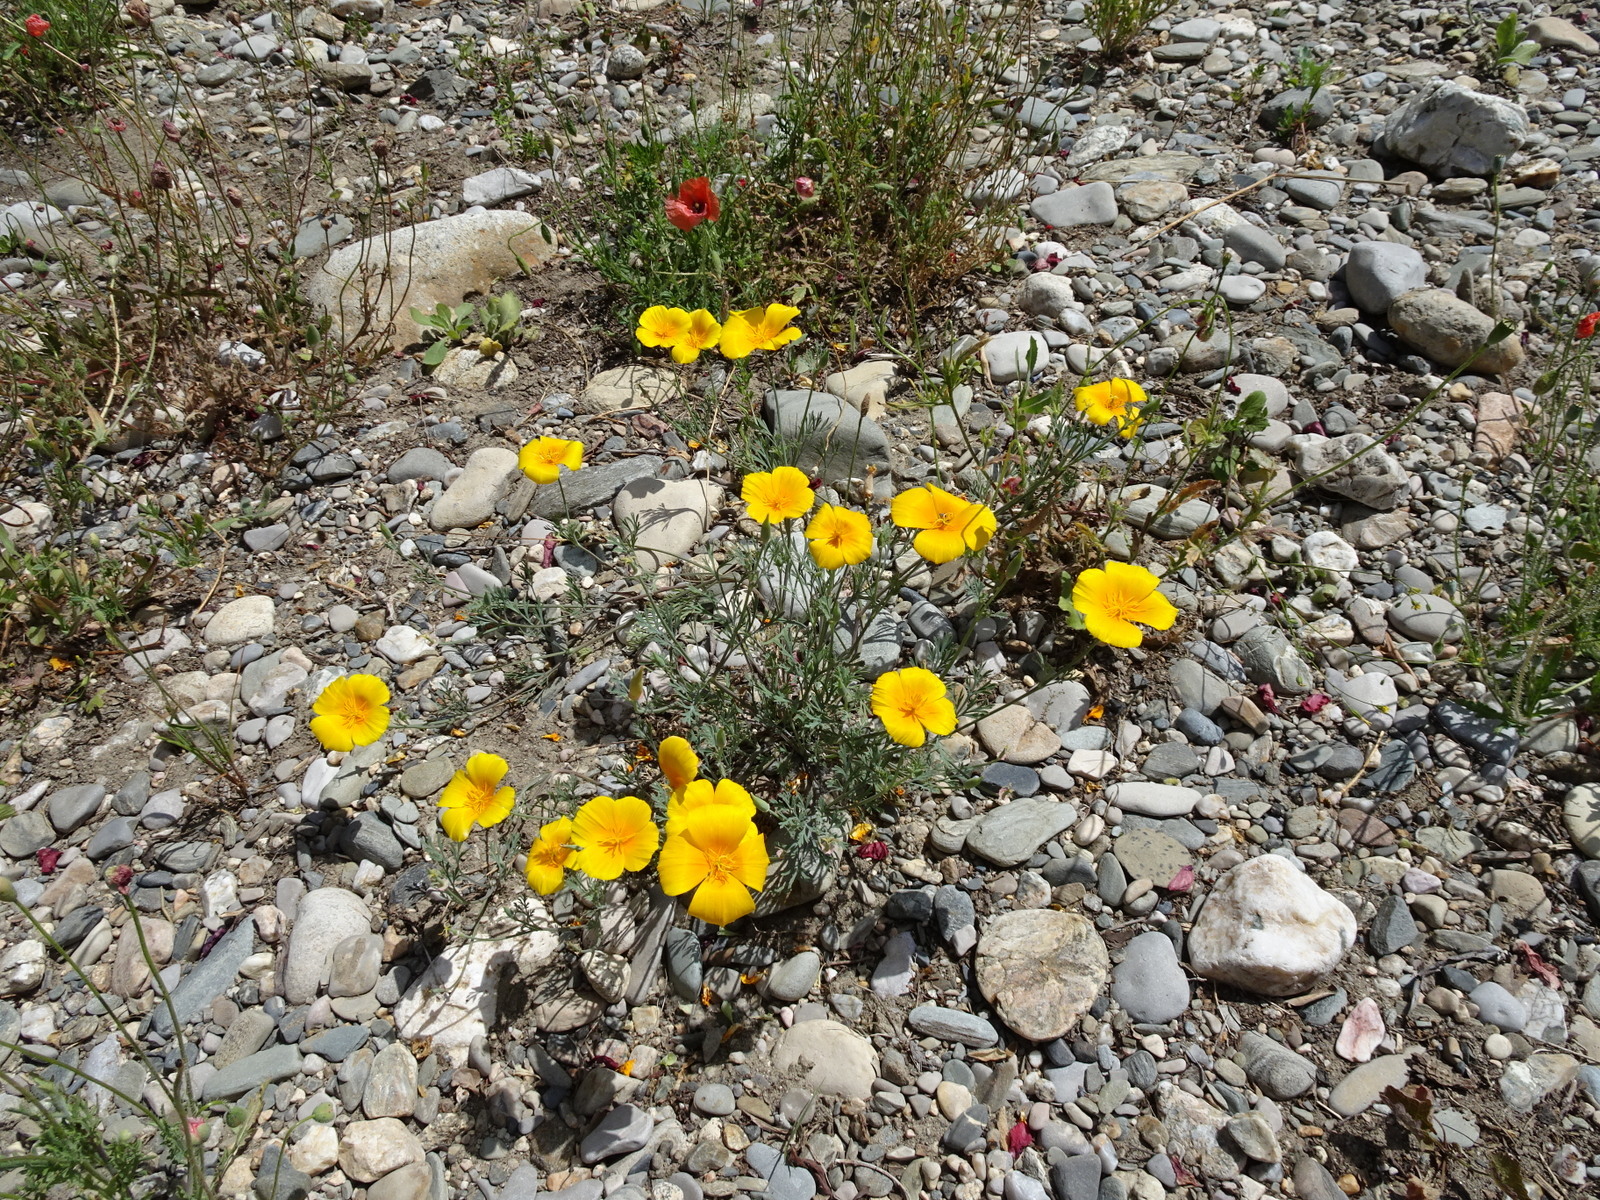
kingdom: Plantae
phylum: Tracheophyta
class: Magnoliopsida
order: Ranunculales
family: Papaveraceae
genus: Eschscholzia
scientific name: Eschscholzia californica
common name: California poppy
